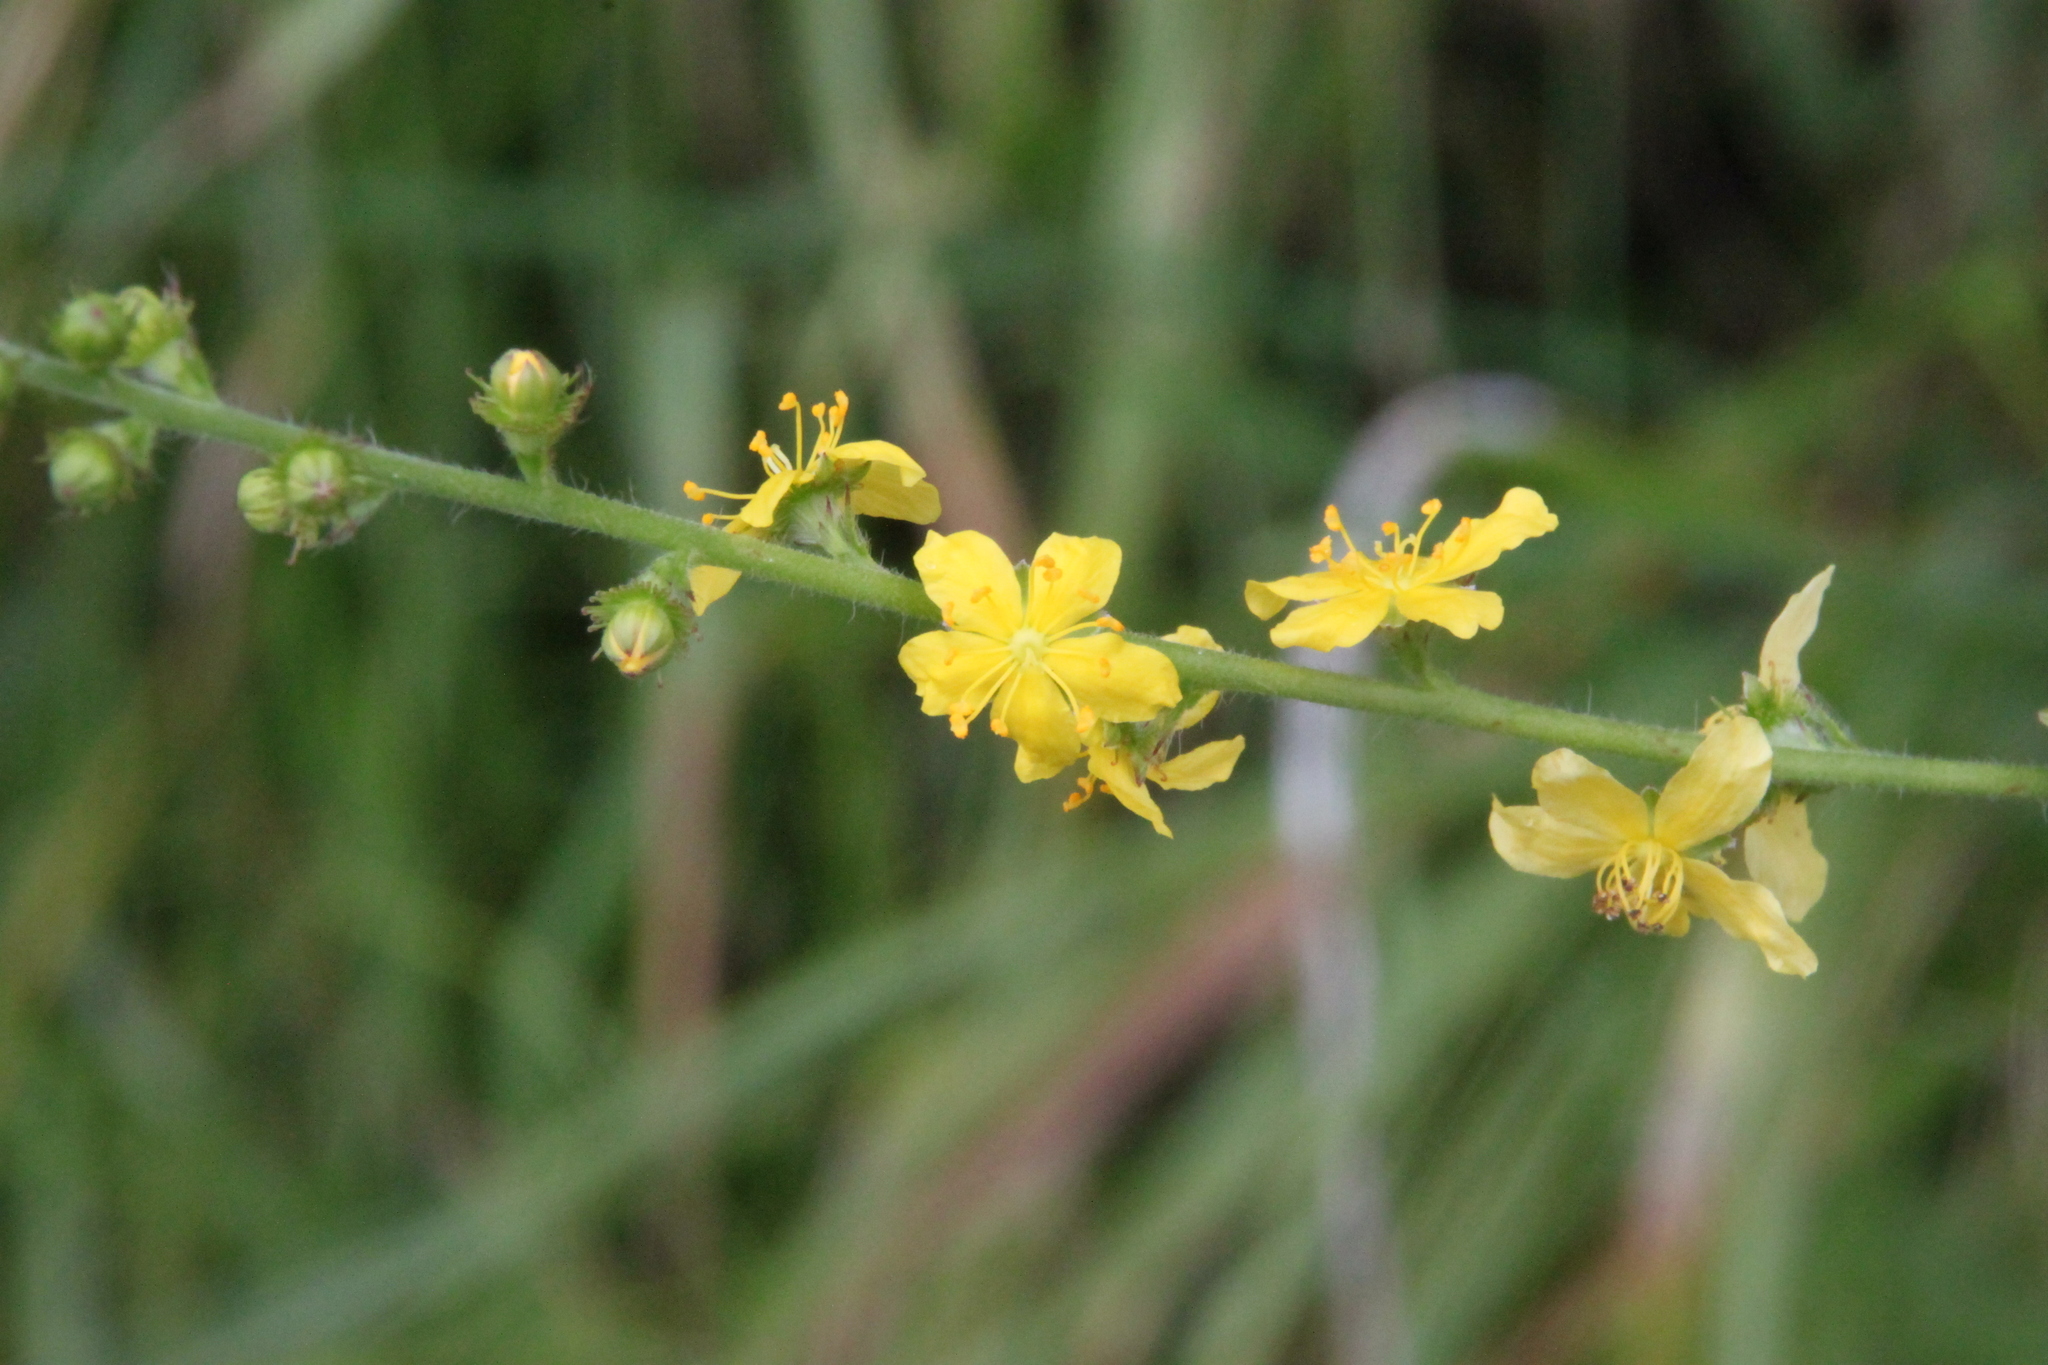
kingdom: Plantae
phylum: Tracheophyta
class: Magnoliopsida
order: Rosales
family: Rosaceae
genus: Agrimonia
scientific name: Agrimonia eupatoria
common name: Agrimony
